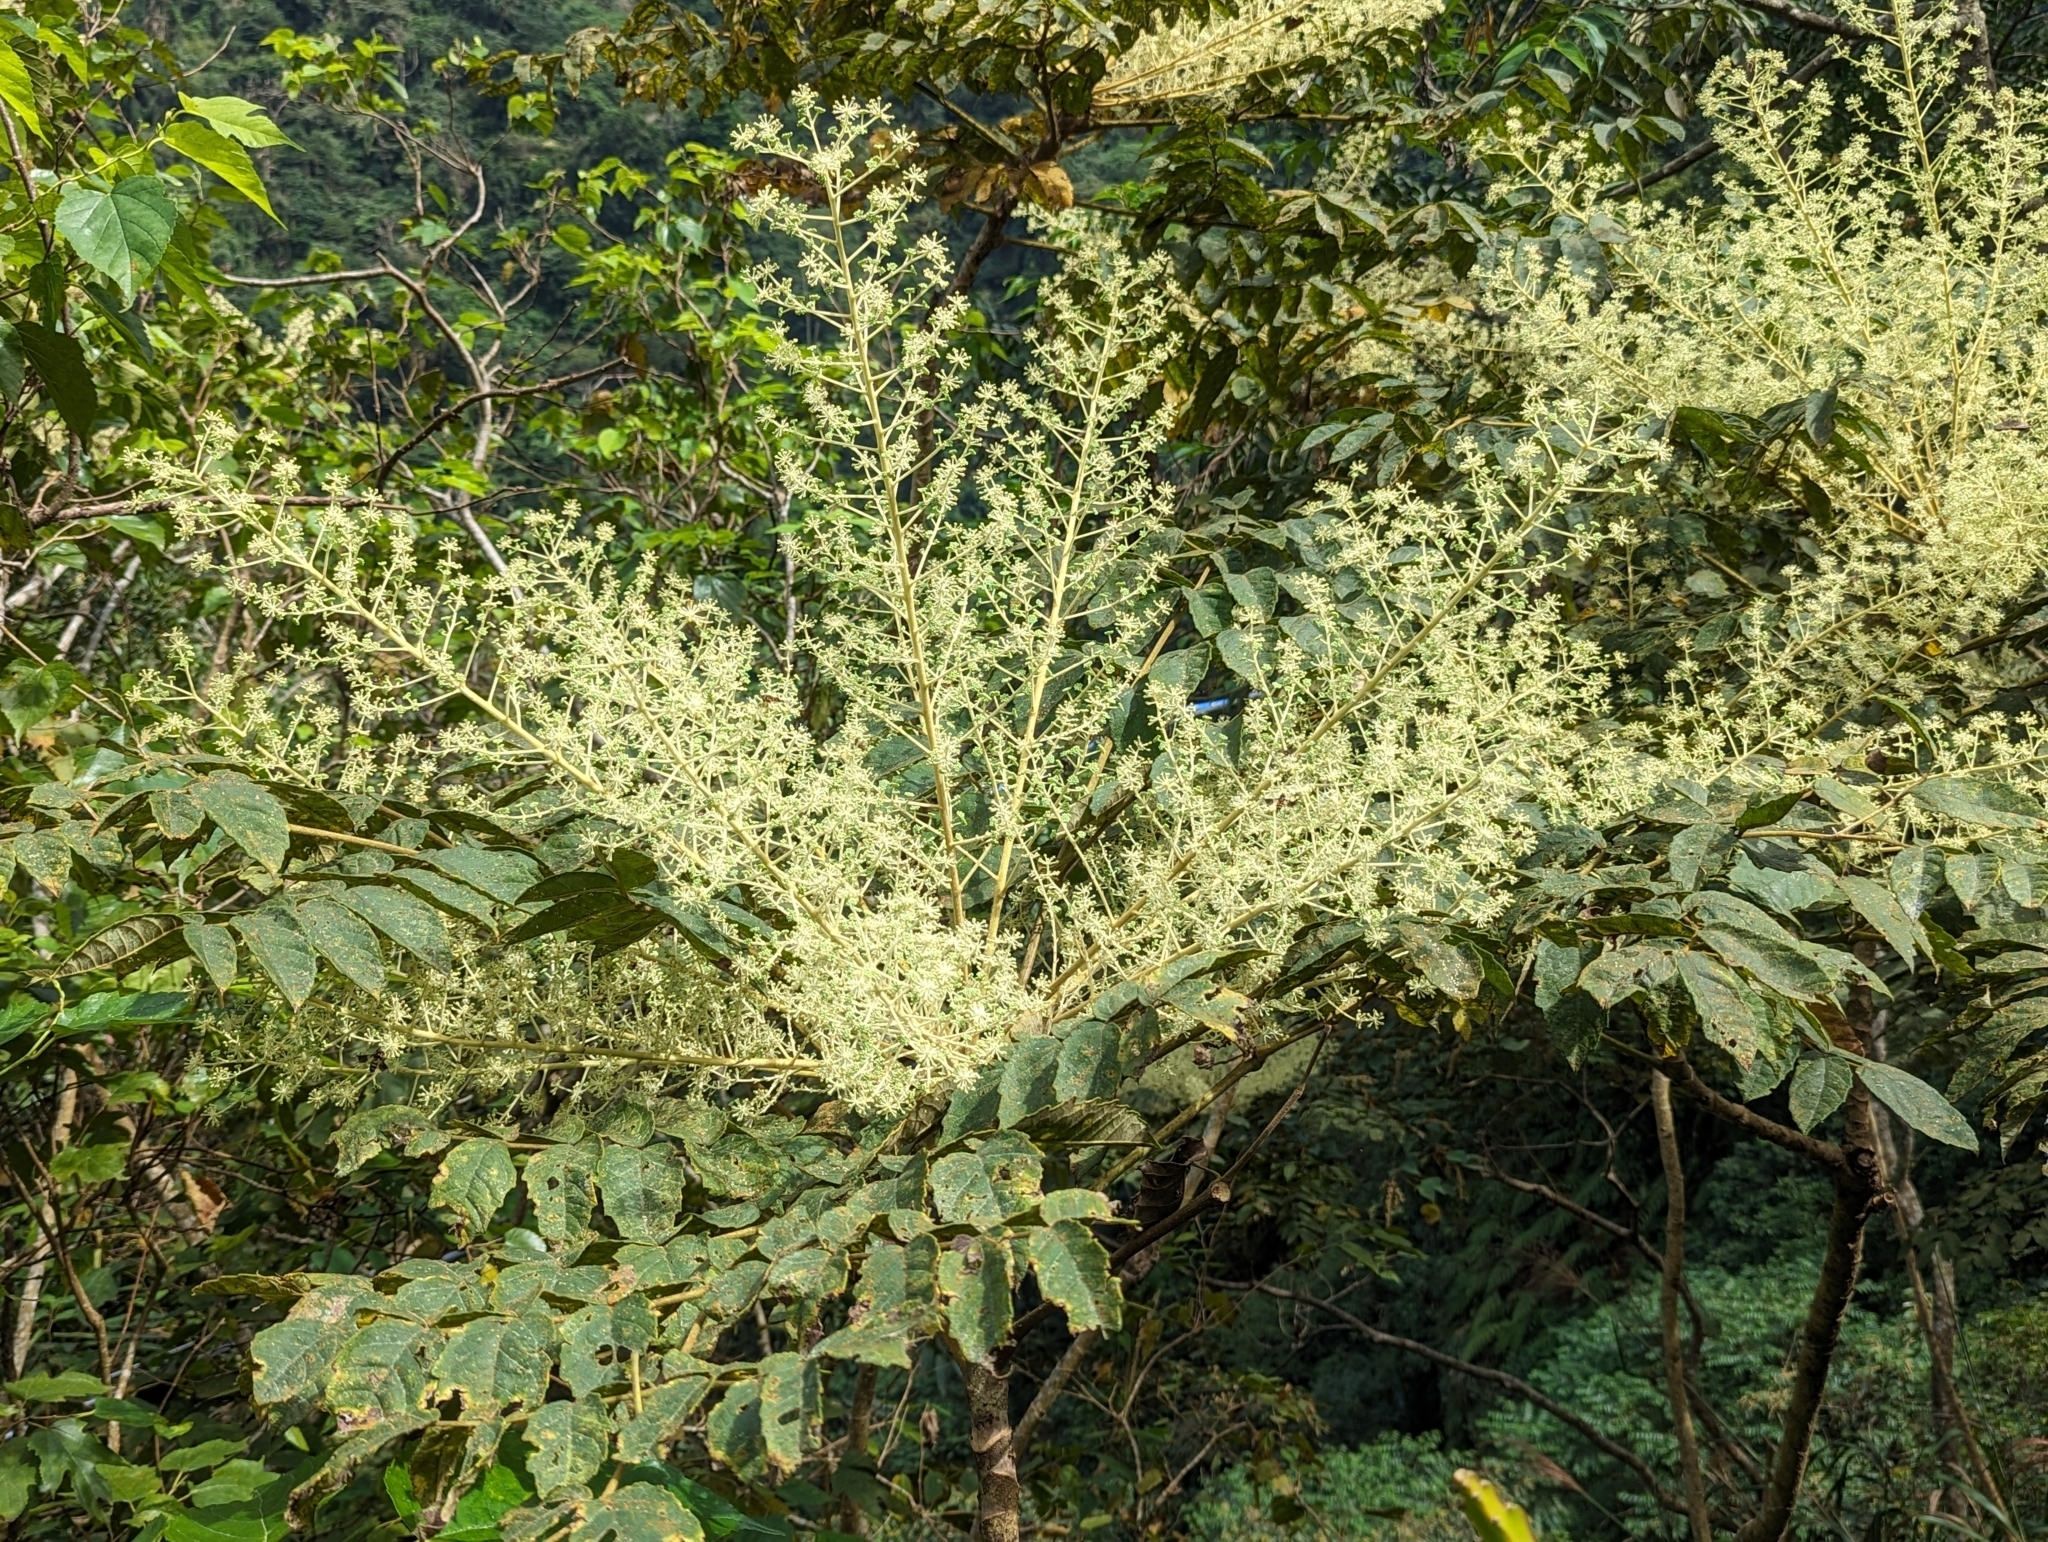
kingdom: Plantae
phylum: Tracheophyta
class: Magnoliopsida
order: Apiales
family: Araliaceae
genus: Aralia
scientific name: Aralia decaisneana
